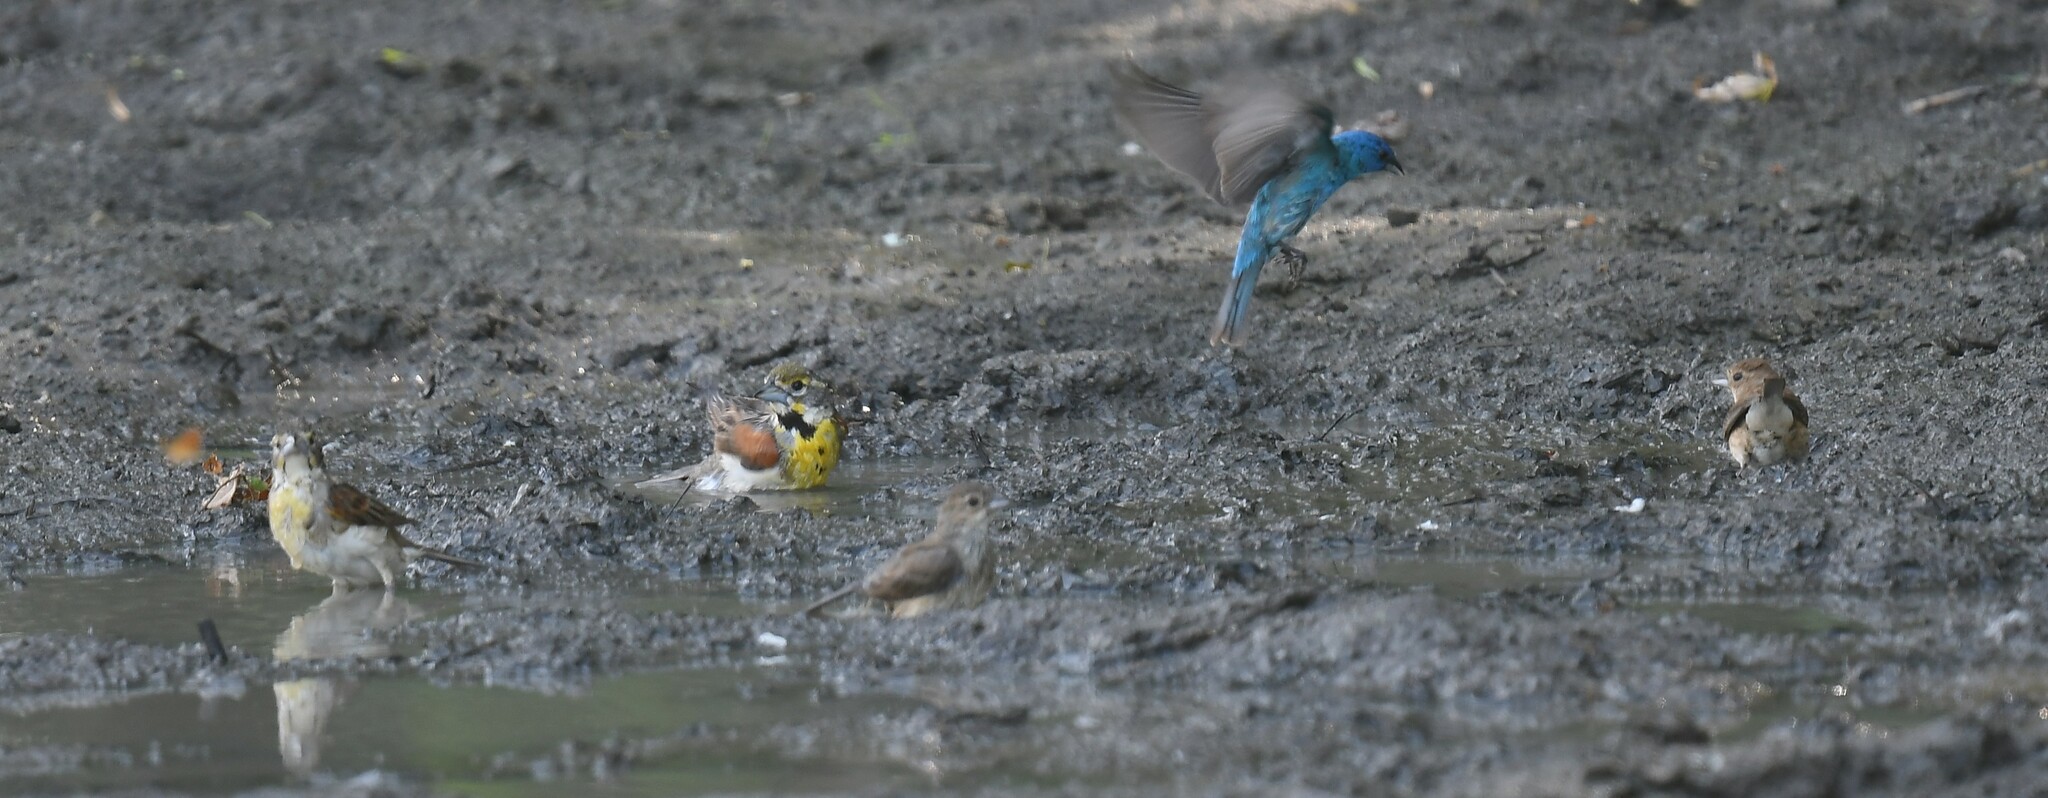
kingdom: Animalia
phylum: Chordata
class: Aves
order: Passeriformes
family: Cardinalidae
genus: Passerina
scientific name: Passerina cyanea
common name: Indigo bunting
